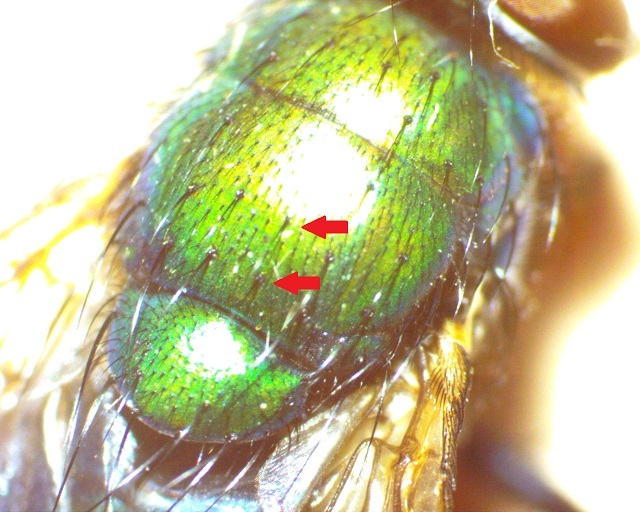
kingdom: Animalia
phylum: Arthropoda
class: Insecta
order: Diptera
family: Calliphoridae
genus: Lucilia
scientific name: Lucilia caeruleiviridis
